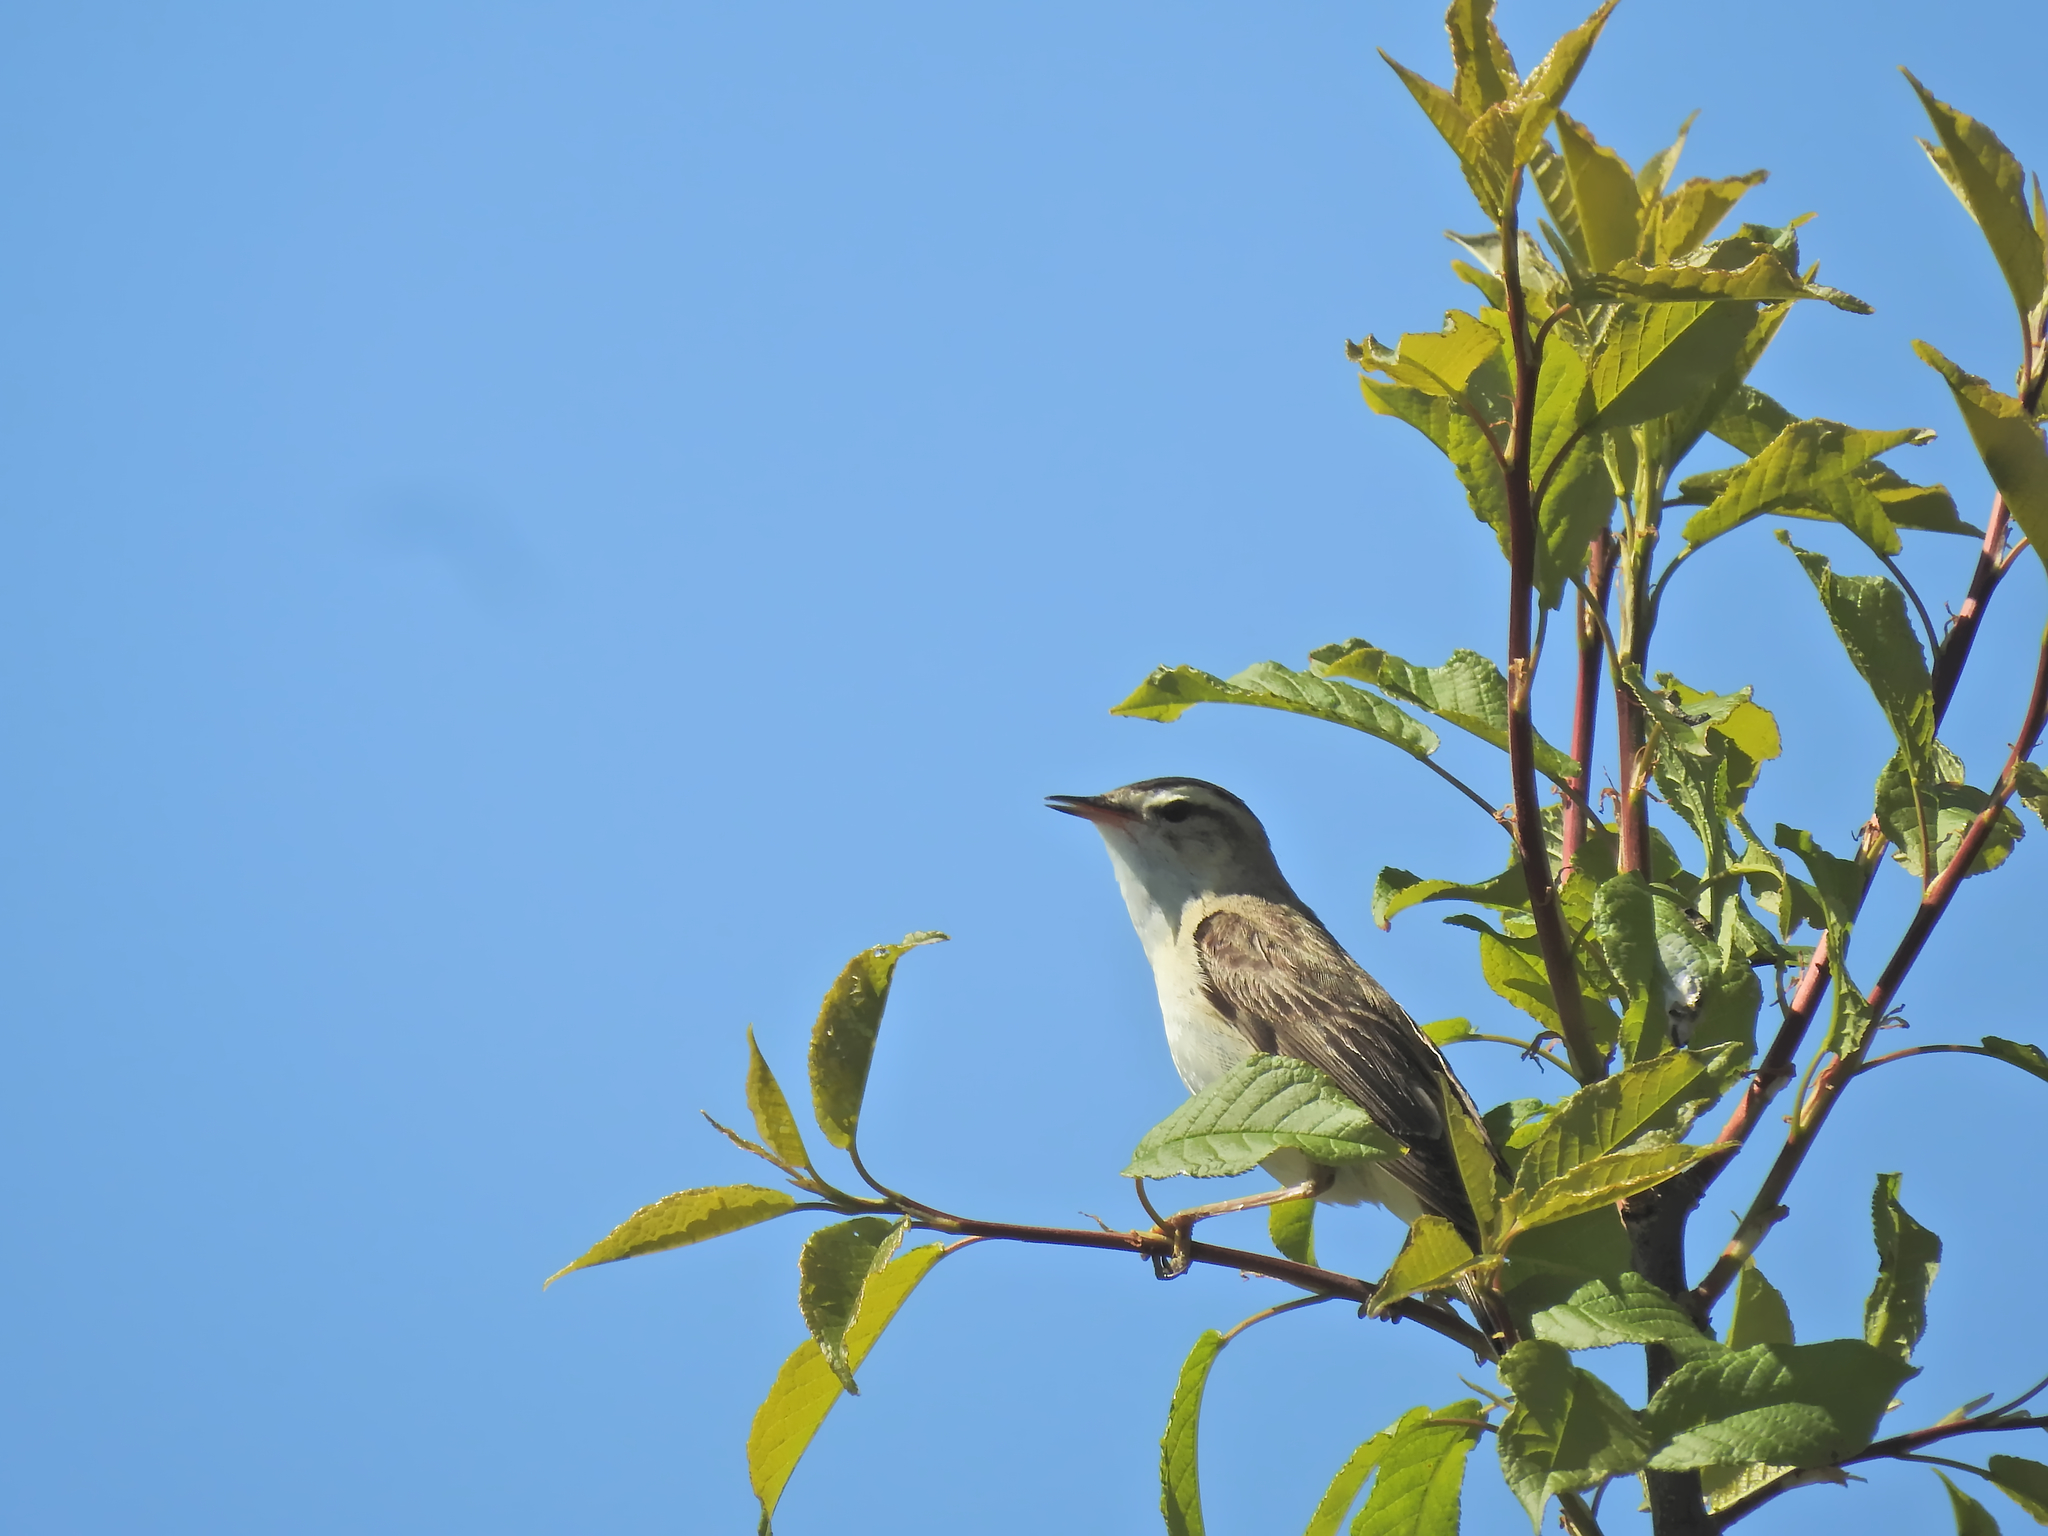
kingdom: Animalia
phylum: Chordata
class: Aves
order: Passeriformes
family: Acrocephalidae
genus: Acrocephalus
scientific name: Acrocephalus schoenobaenus
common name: Sedge warbler
